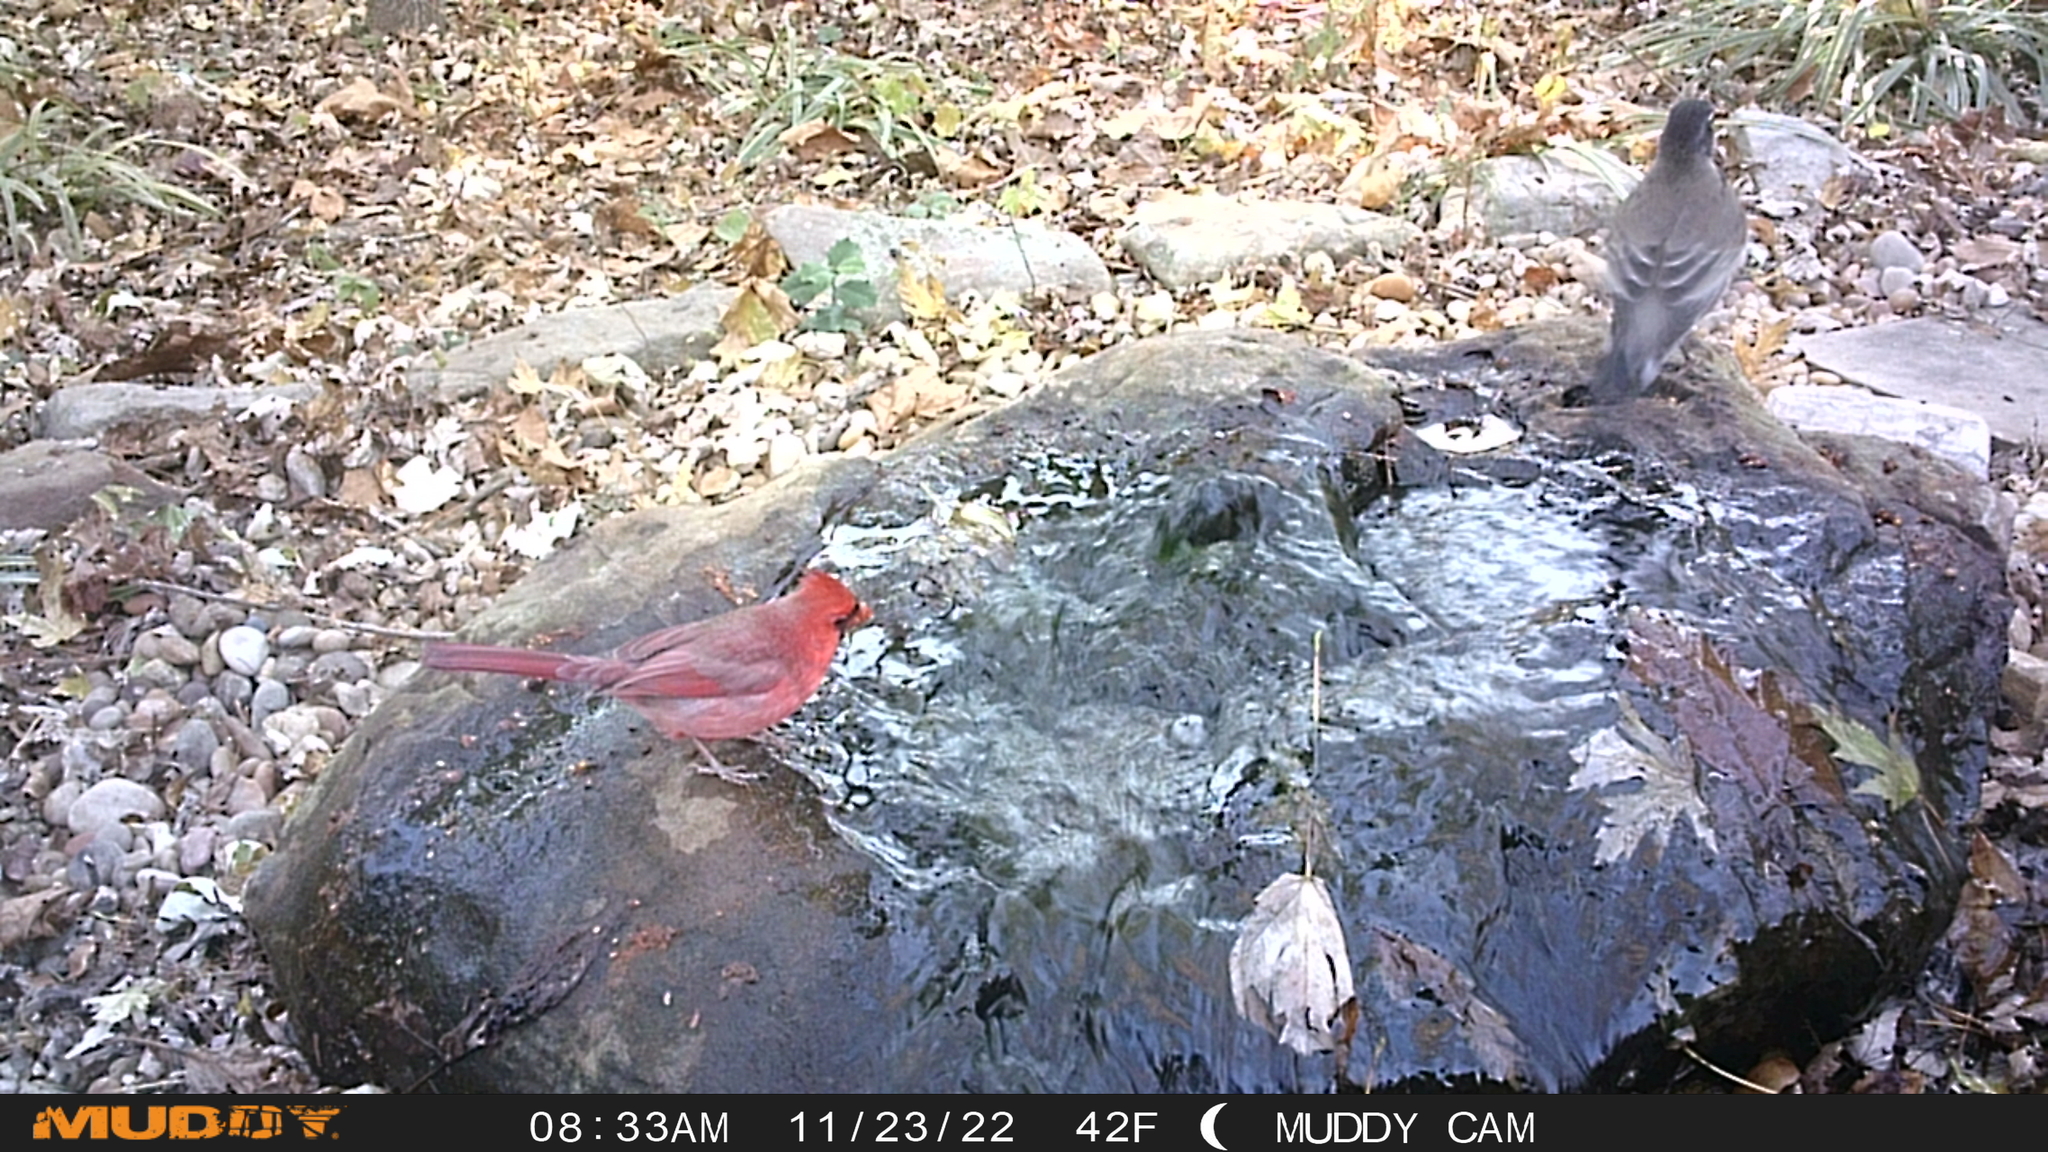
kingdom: Animalia
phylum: Chordata
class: Aves
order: Passeriformes
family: Cardinalidae
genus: Cardinalis
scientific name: Cardinalis cardinalis
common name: Northern cardinal
